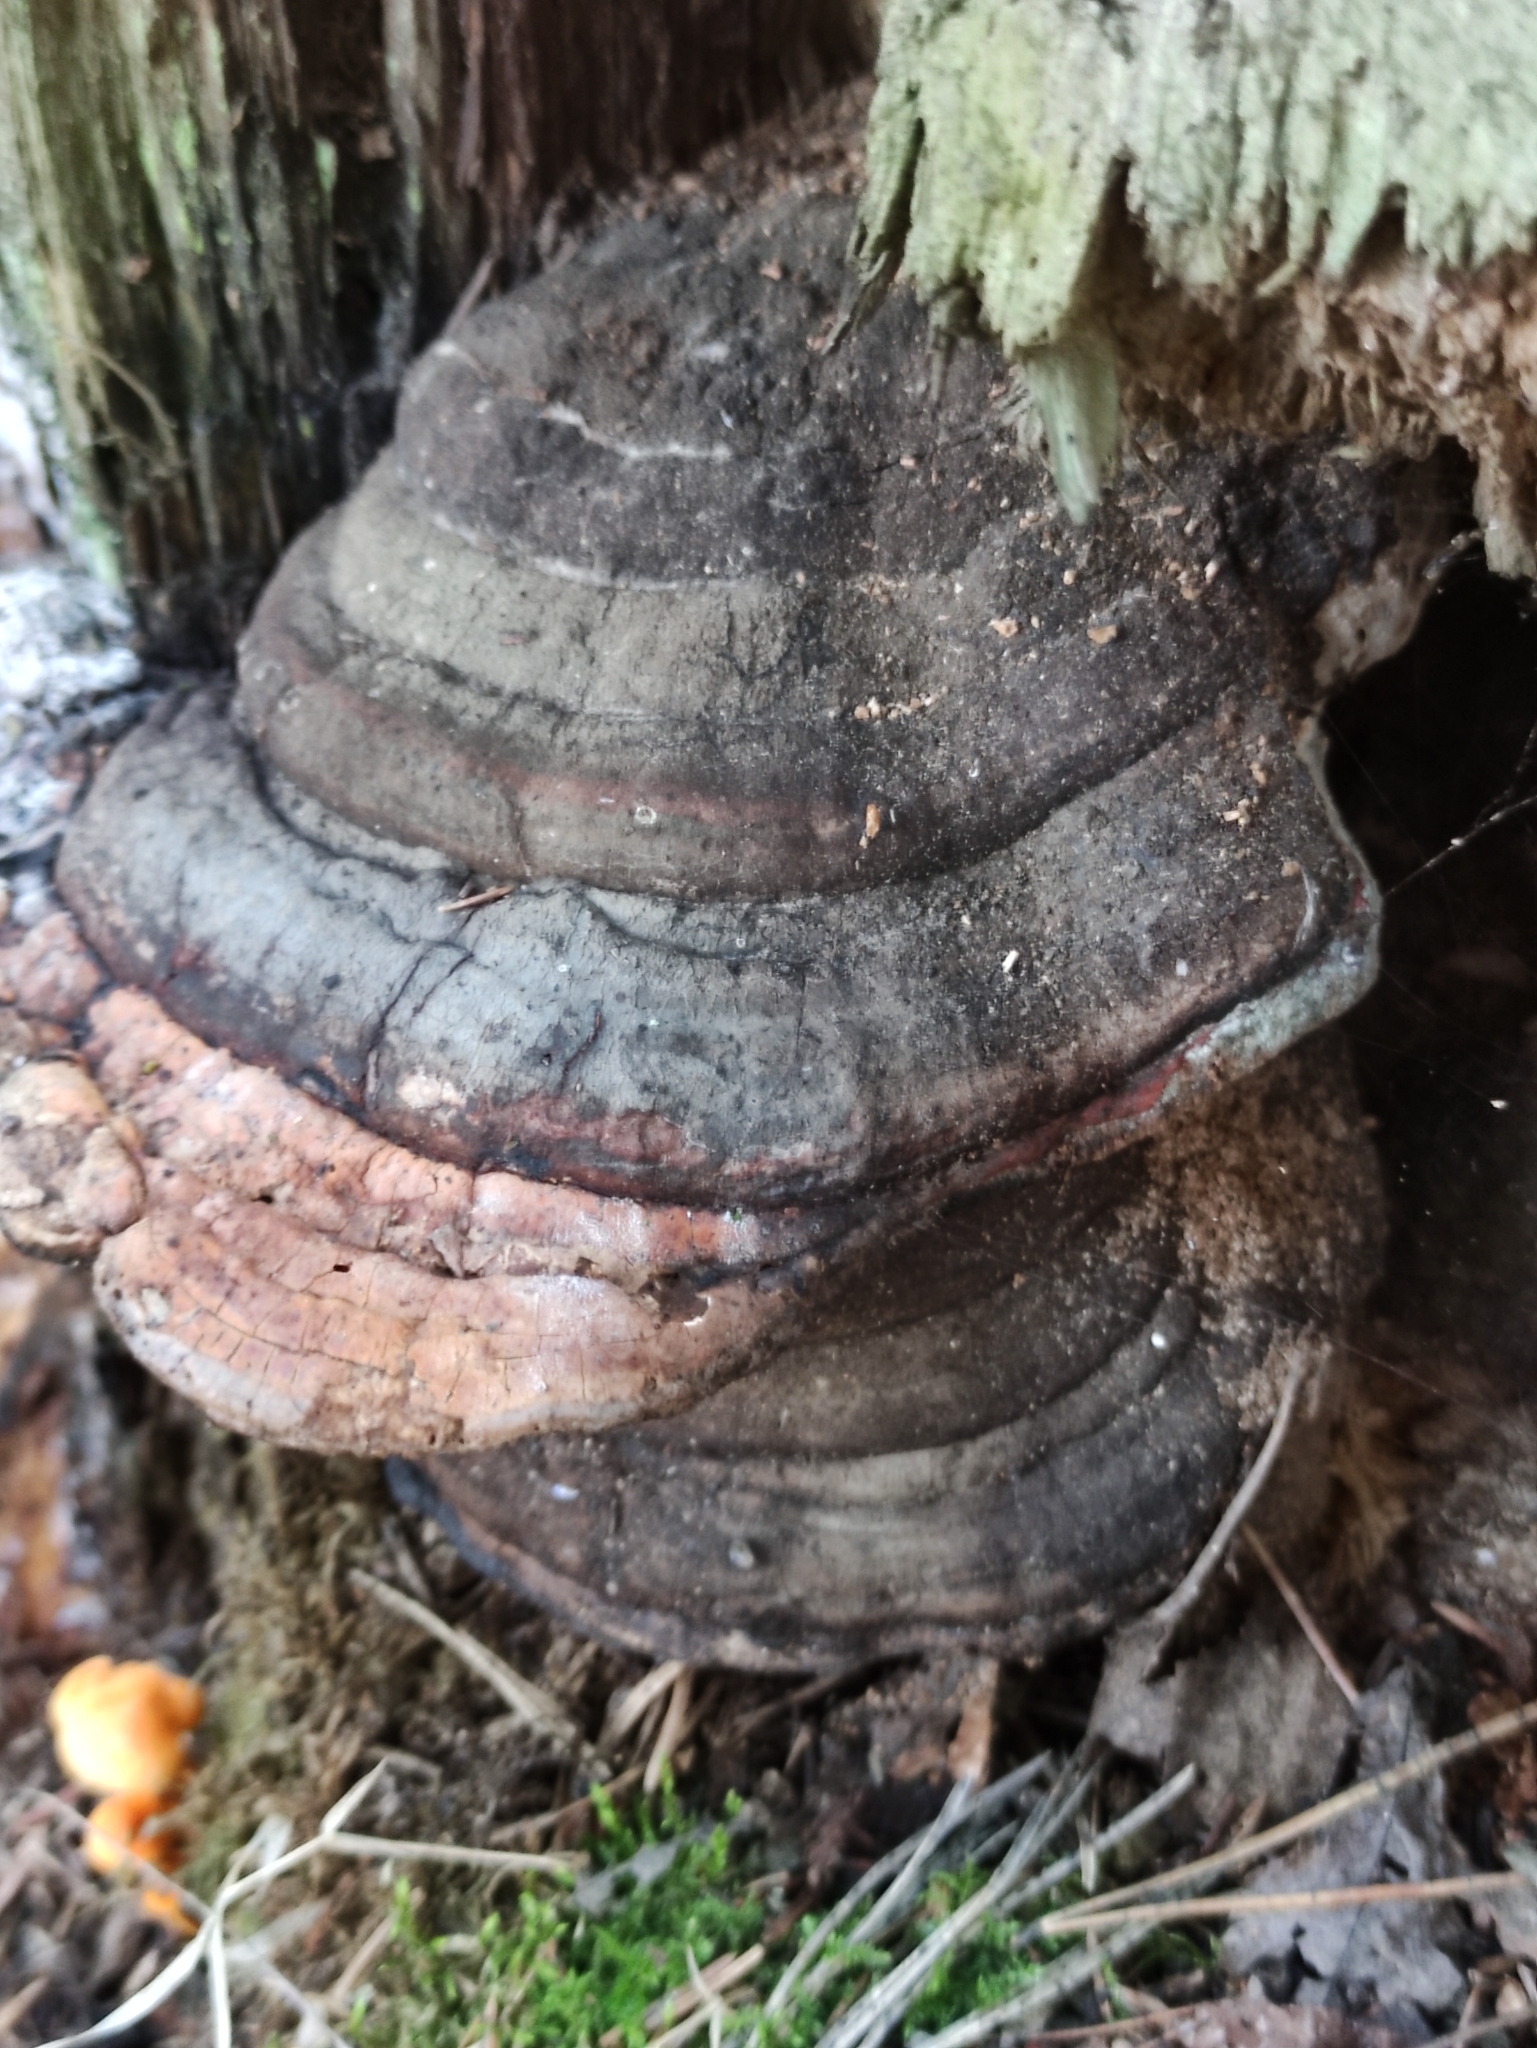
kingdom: Fungi
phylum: Basidiomycota
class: Agaricomycetes
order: Polyporales
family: Fomitopsidaceae
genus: Fomitopsis
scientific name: Fomitopsis pinicola
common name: Red-belted bracket
